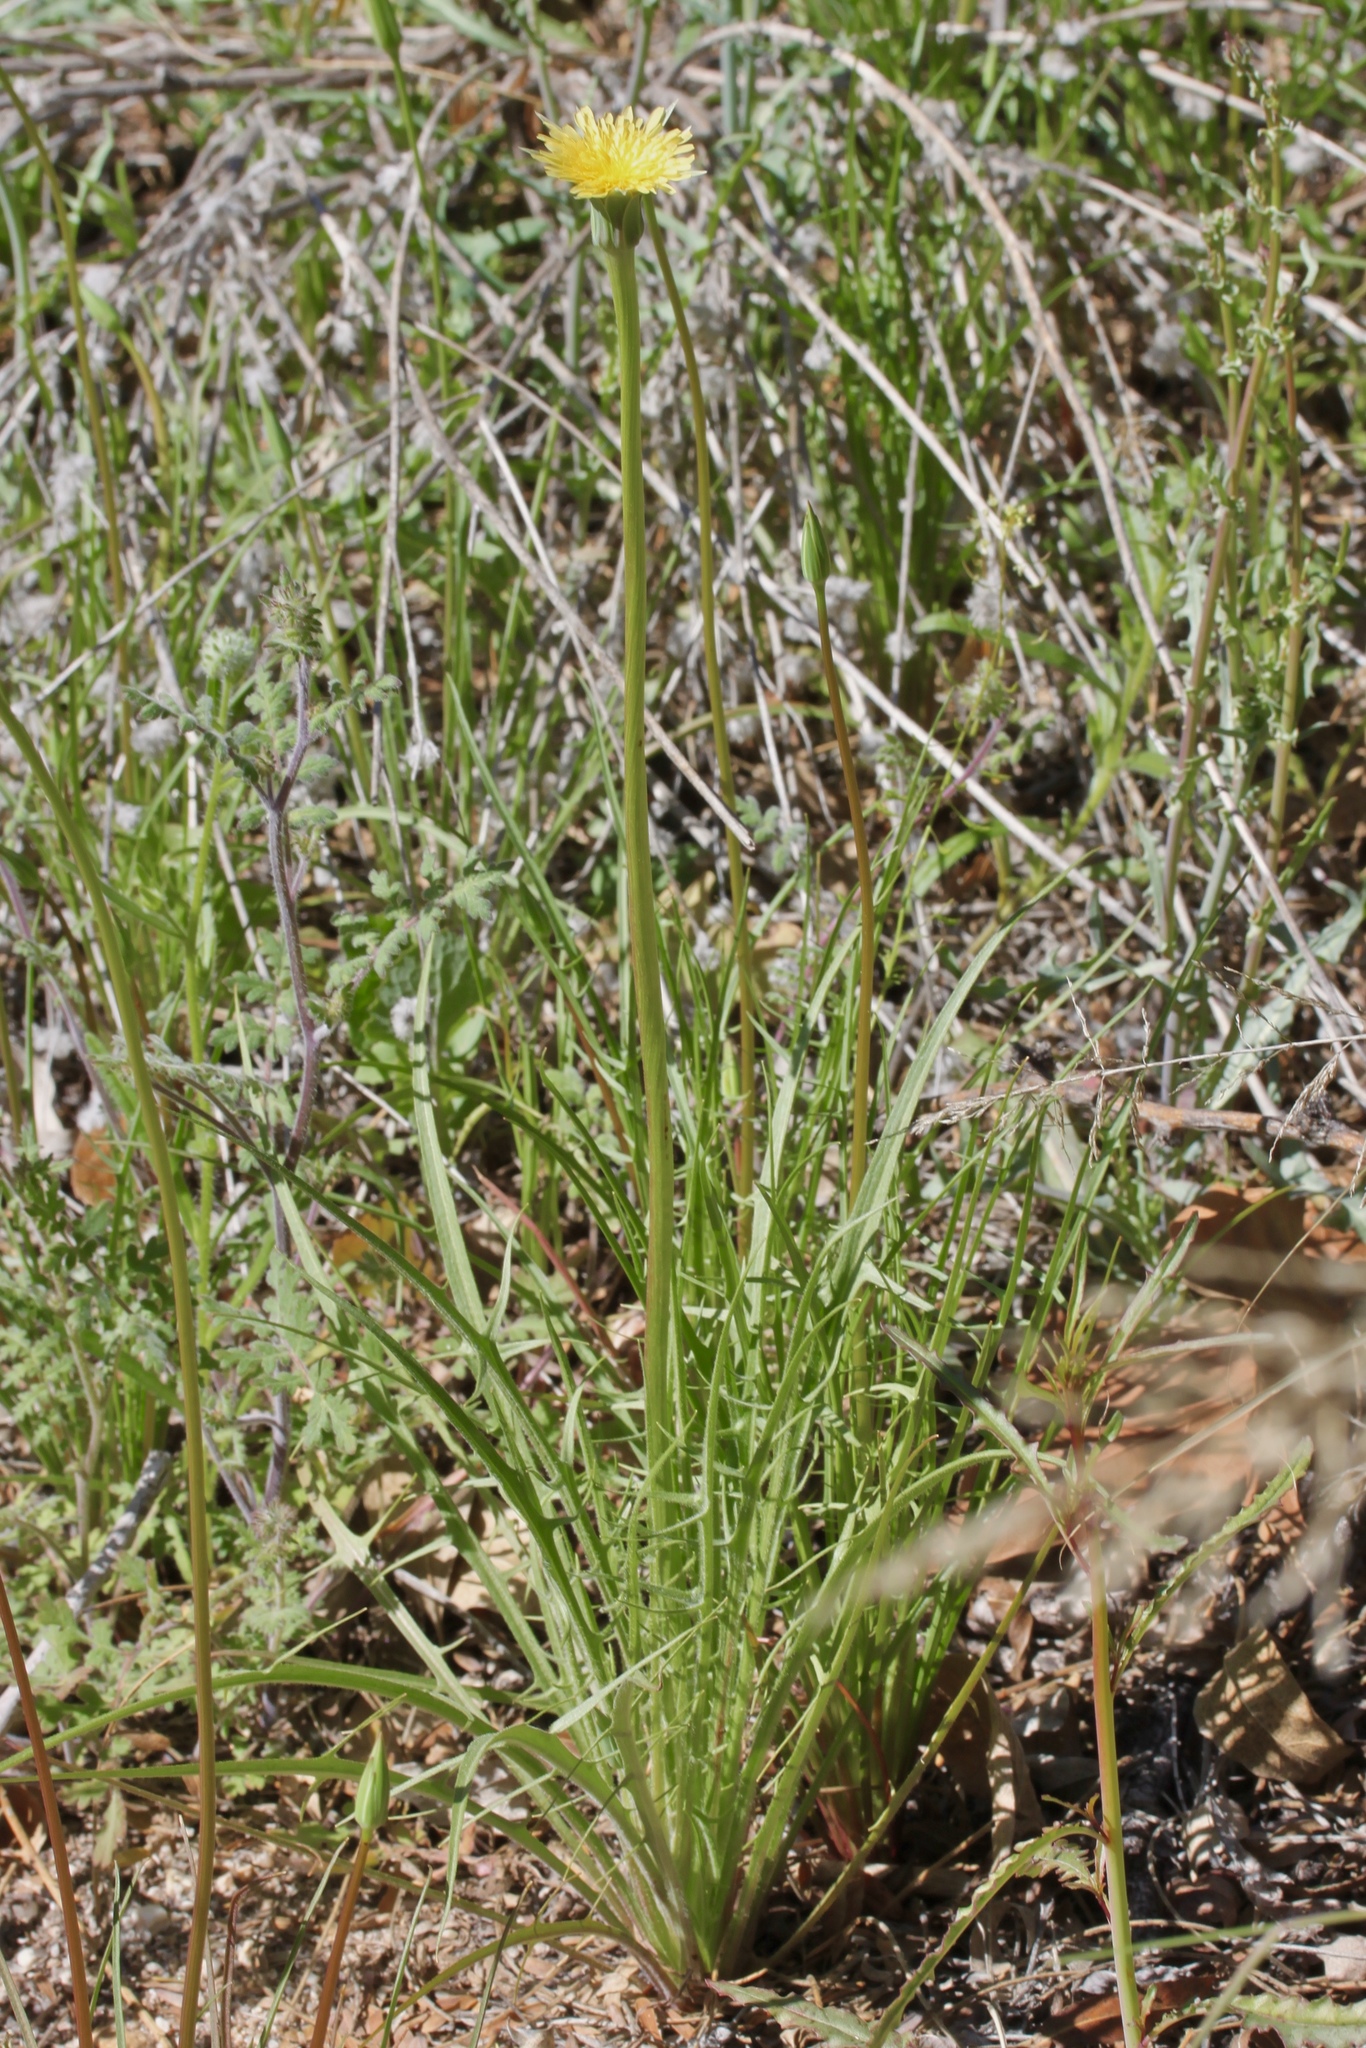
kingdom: Plantae
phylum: Tracheophyta
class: Magnoliopsida
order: Asterales
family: Asteraceae
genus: Microseris
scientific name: Microseris lindleyi
